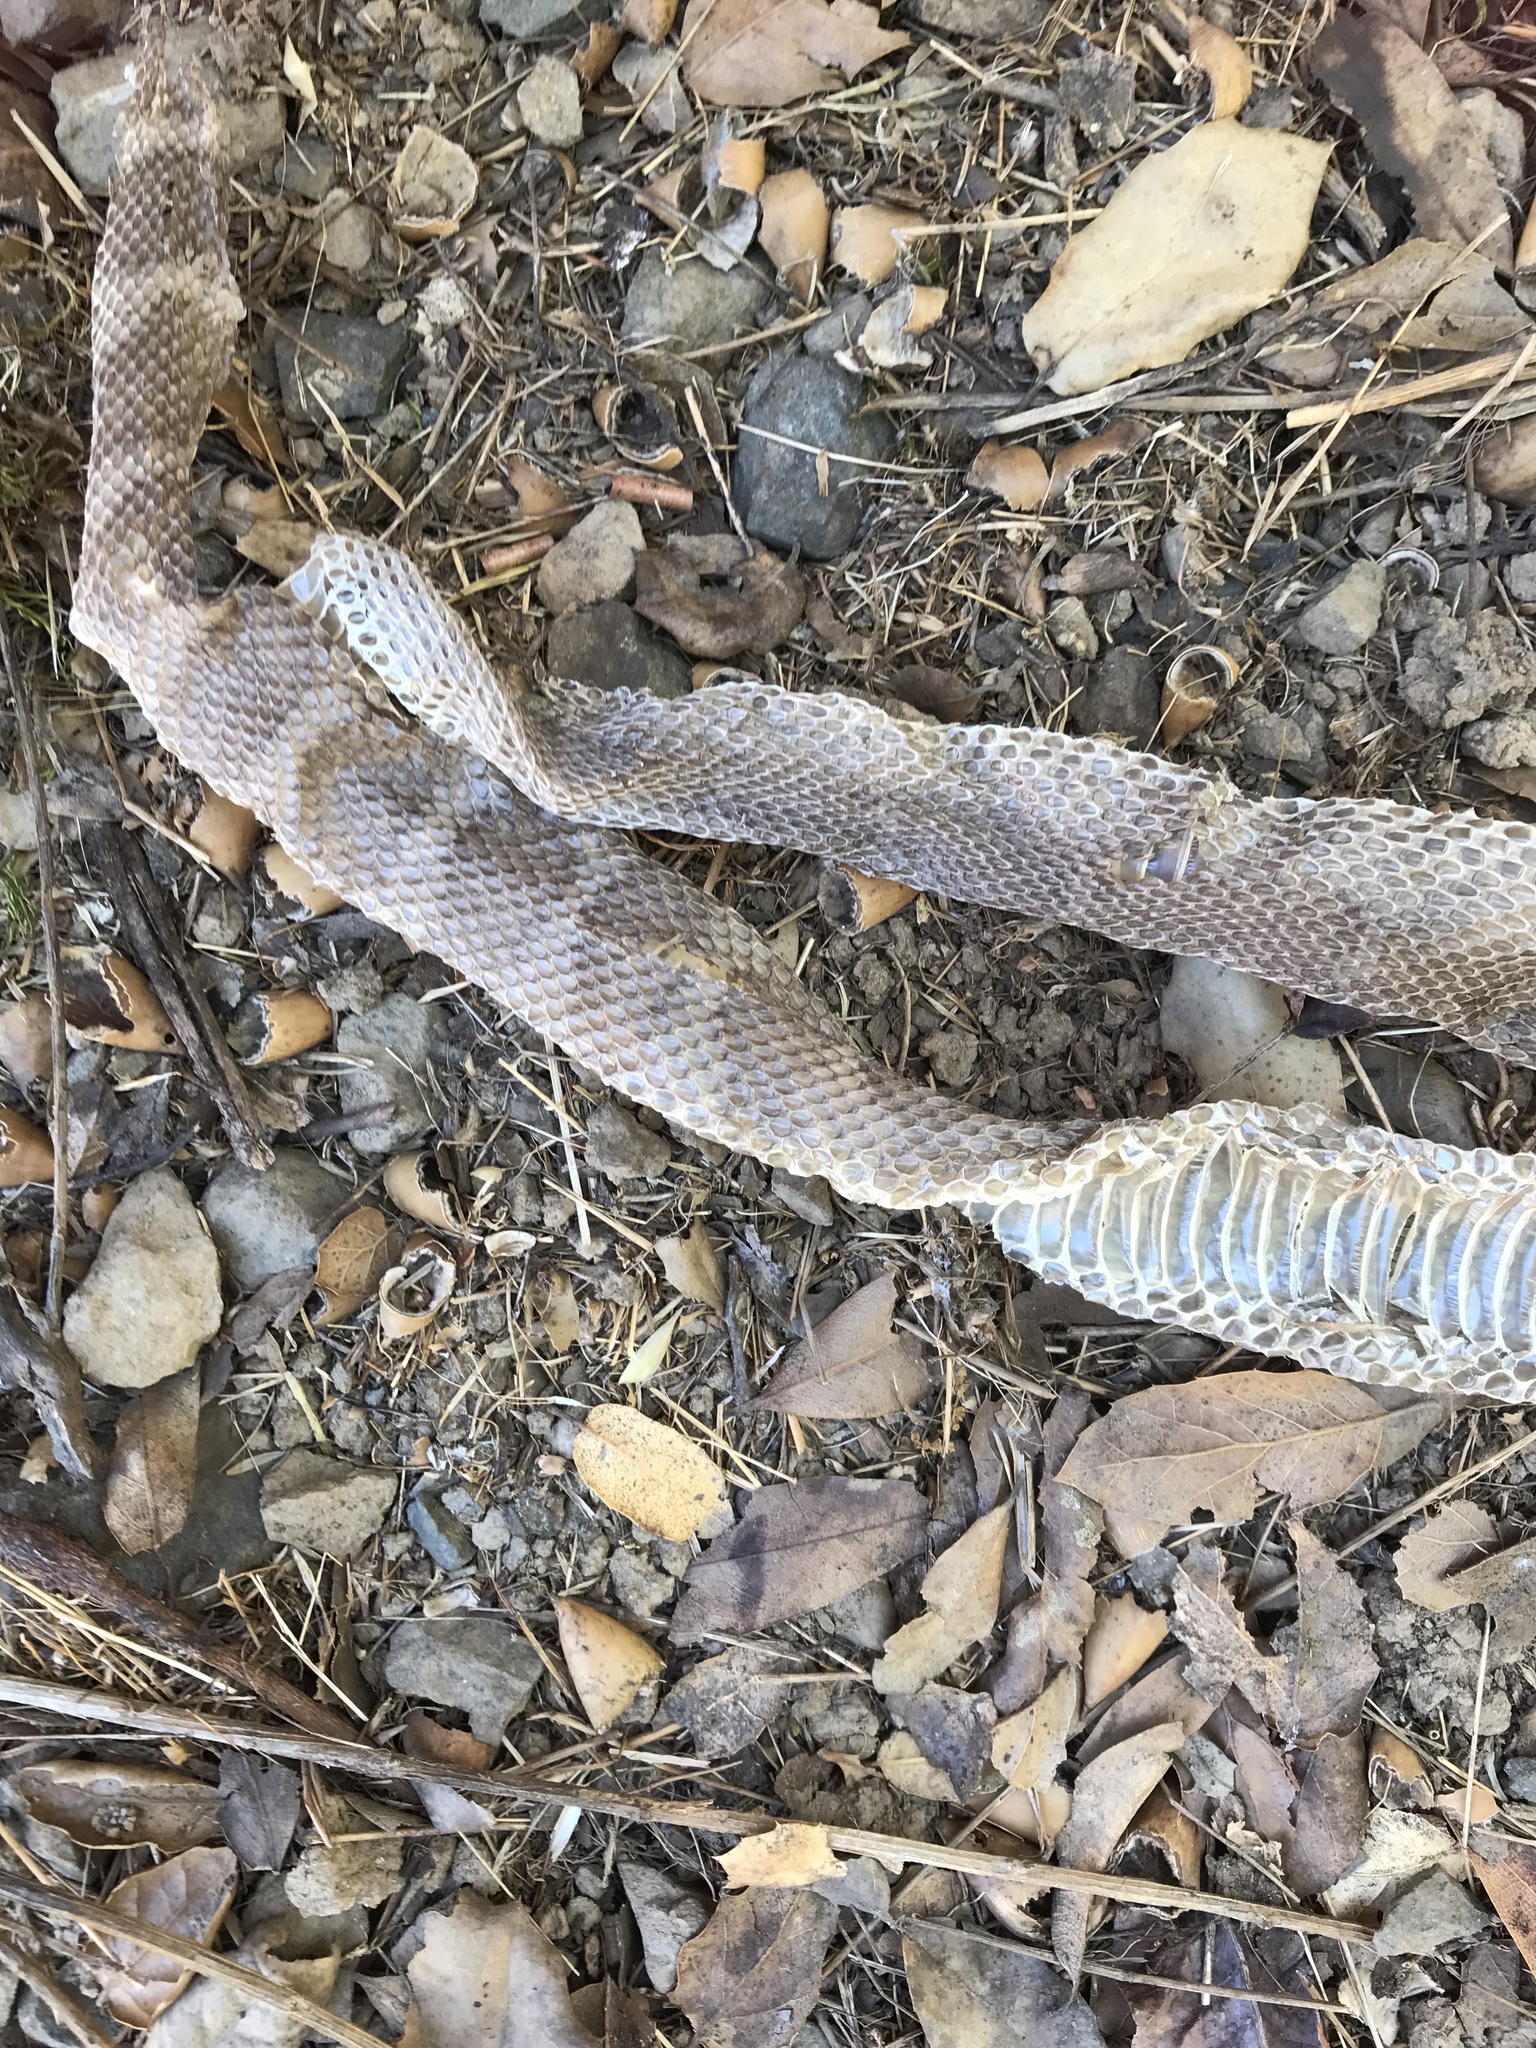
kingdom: Animalia
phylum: Chordata
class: Squamata
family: Viperidae
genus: Crotalus
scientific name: Crotalus oreganus
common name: Abyssus
